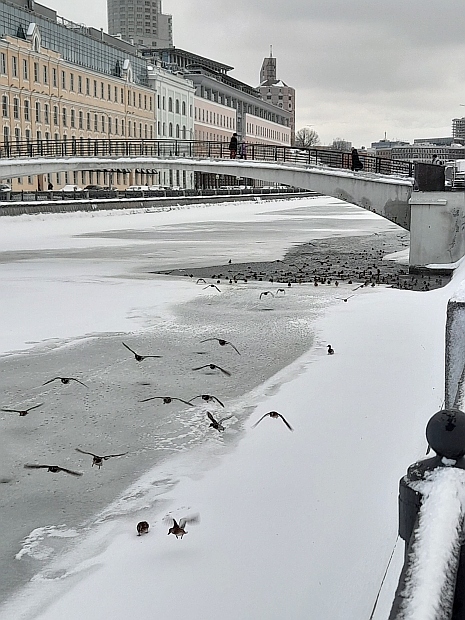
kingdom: Animalia
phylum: Chordata
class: Aves
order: Anseriformes
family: Anatidae
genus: Anas
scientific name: Anas platyrhynchos
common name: Mallard
